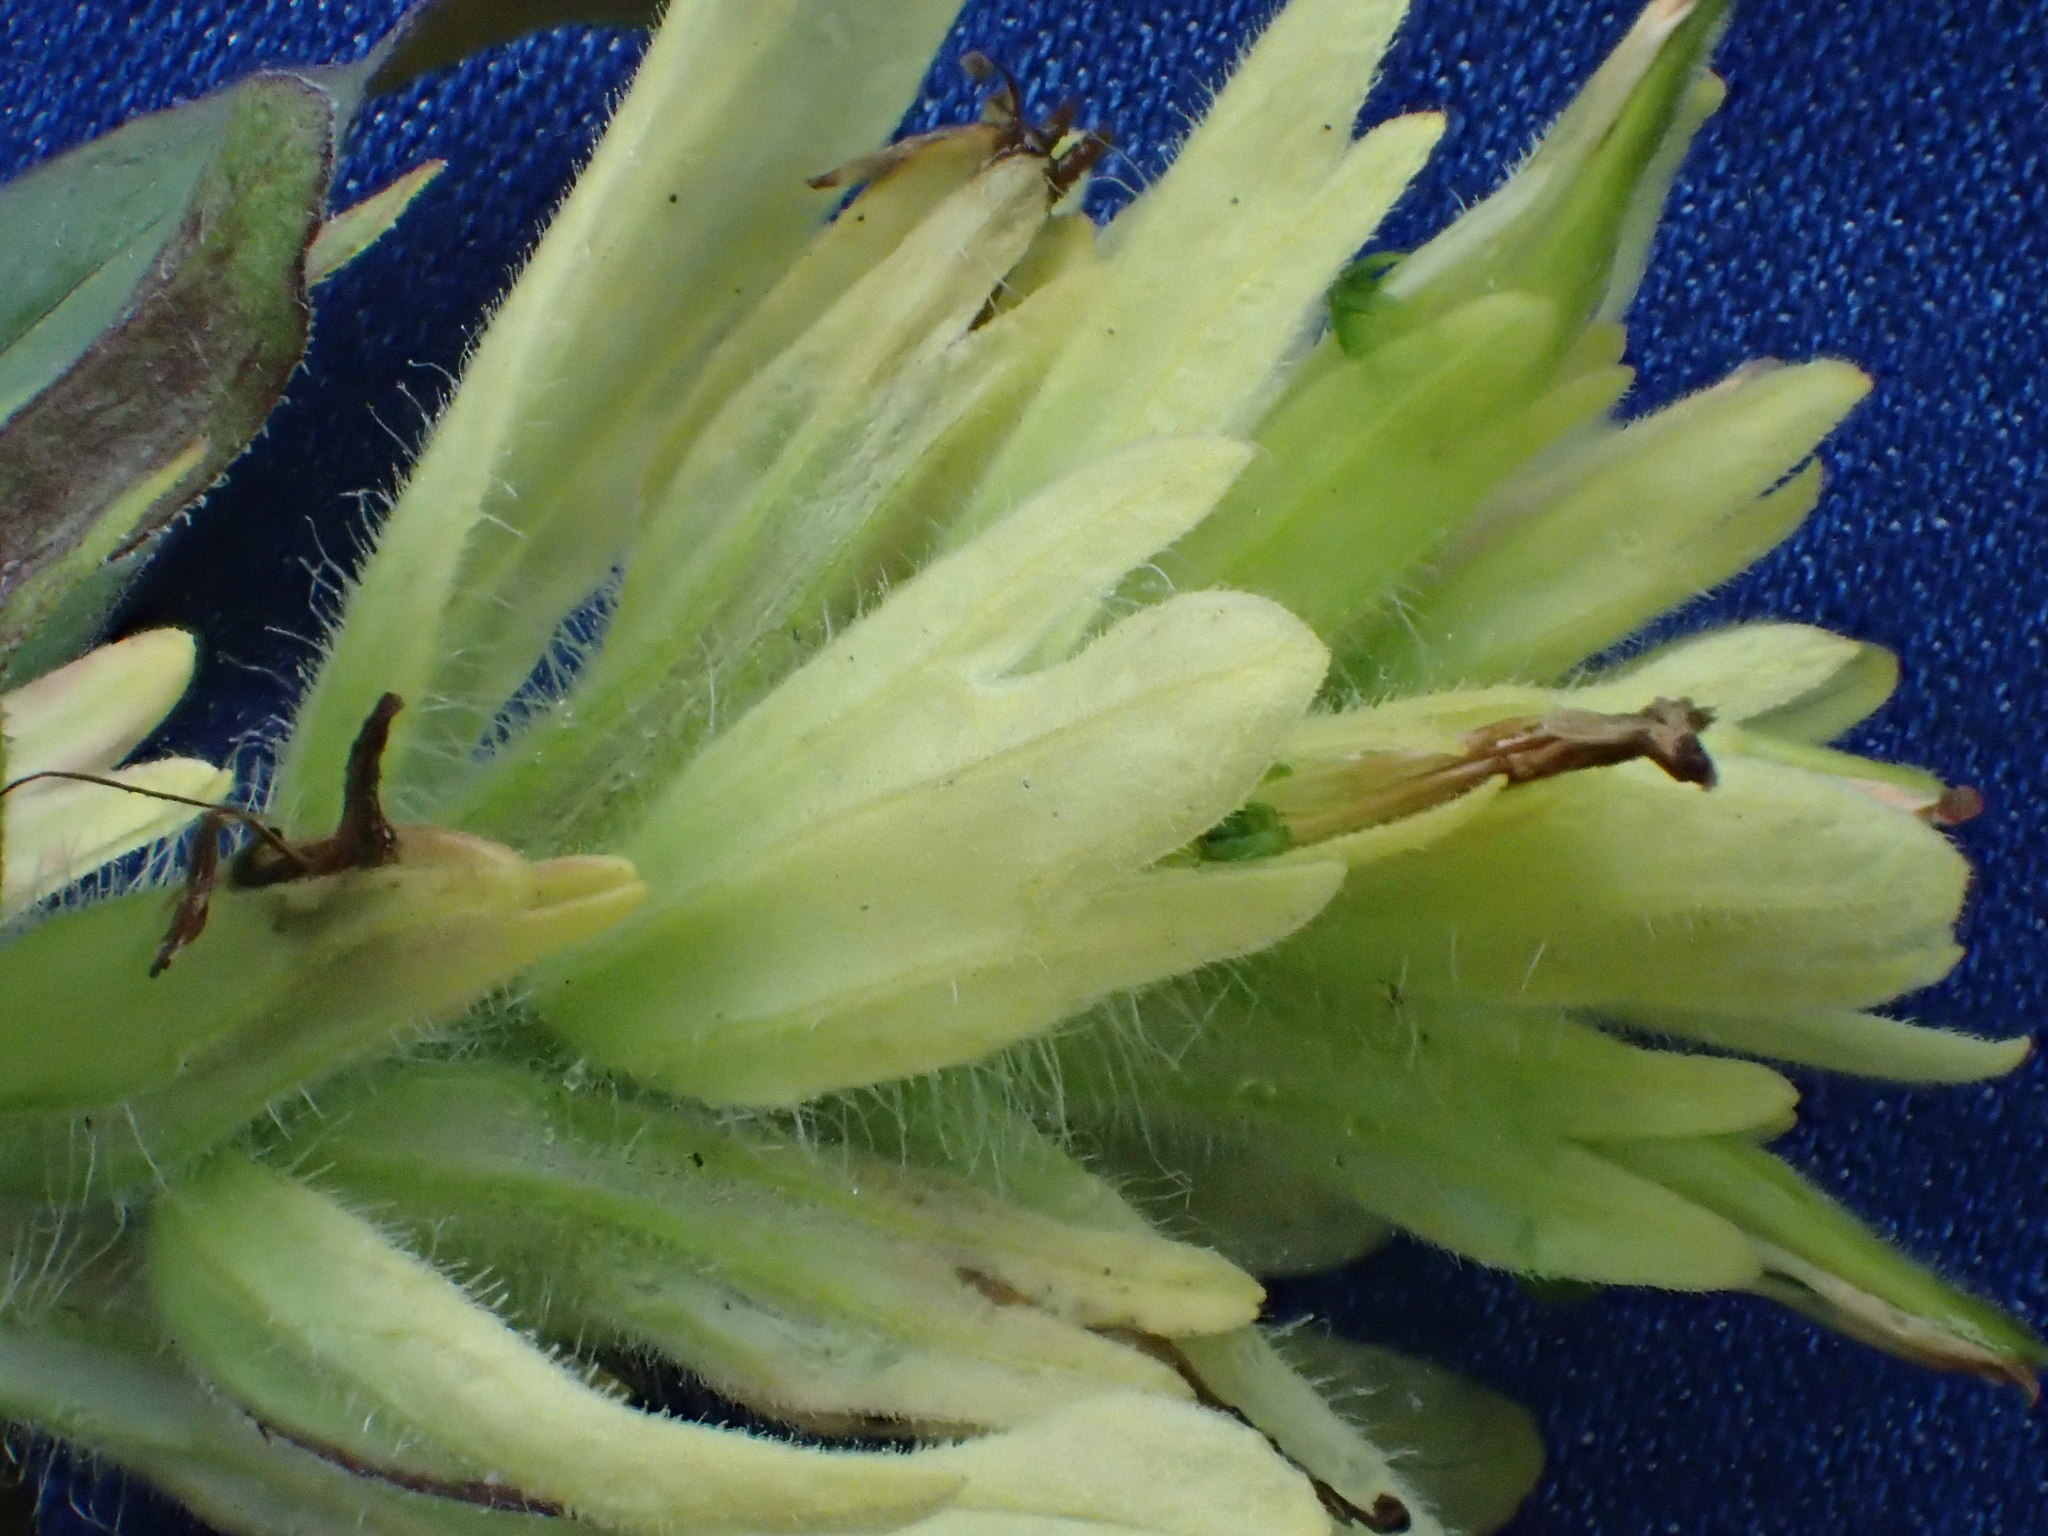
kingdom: Plantae
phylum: Tracheophyta
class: Magnoliopsida
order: Lamiales
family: Orobanchaceae
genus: Castilleja
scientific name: Castilleja unalaschcensis
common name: Unalaska paintbrush
